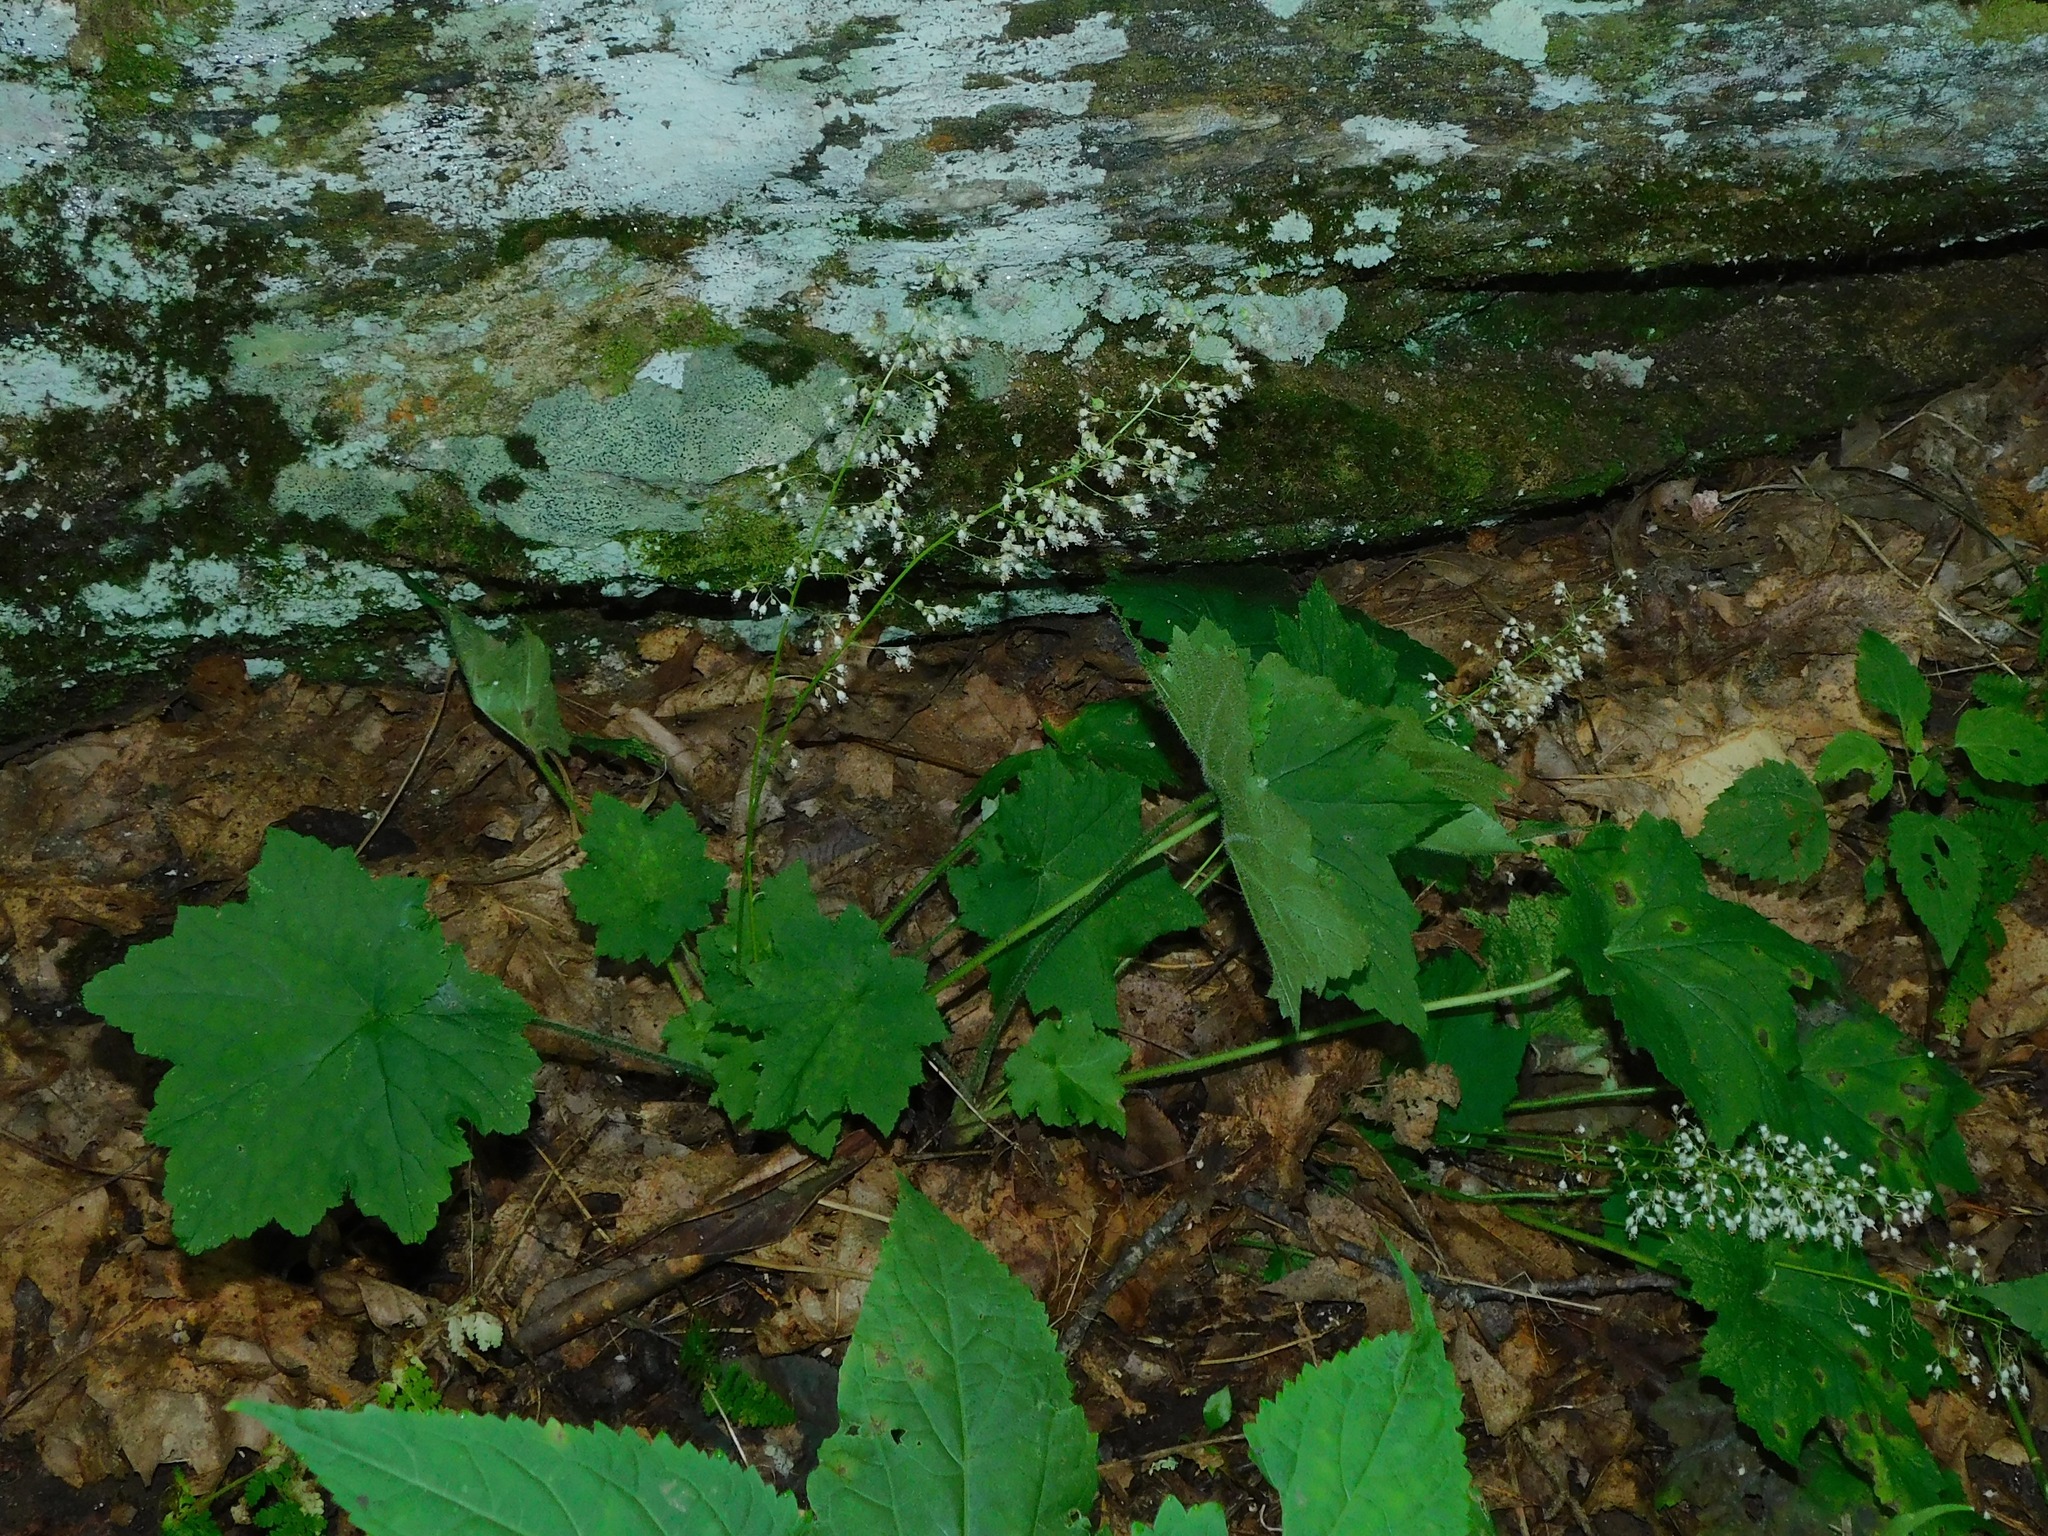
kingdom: Plantae
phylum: Tracheophyta
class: Magnoliopsida
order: Saxifragales
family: Saxifragaceae
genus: Heuchera
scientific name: Heuchera villosa
